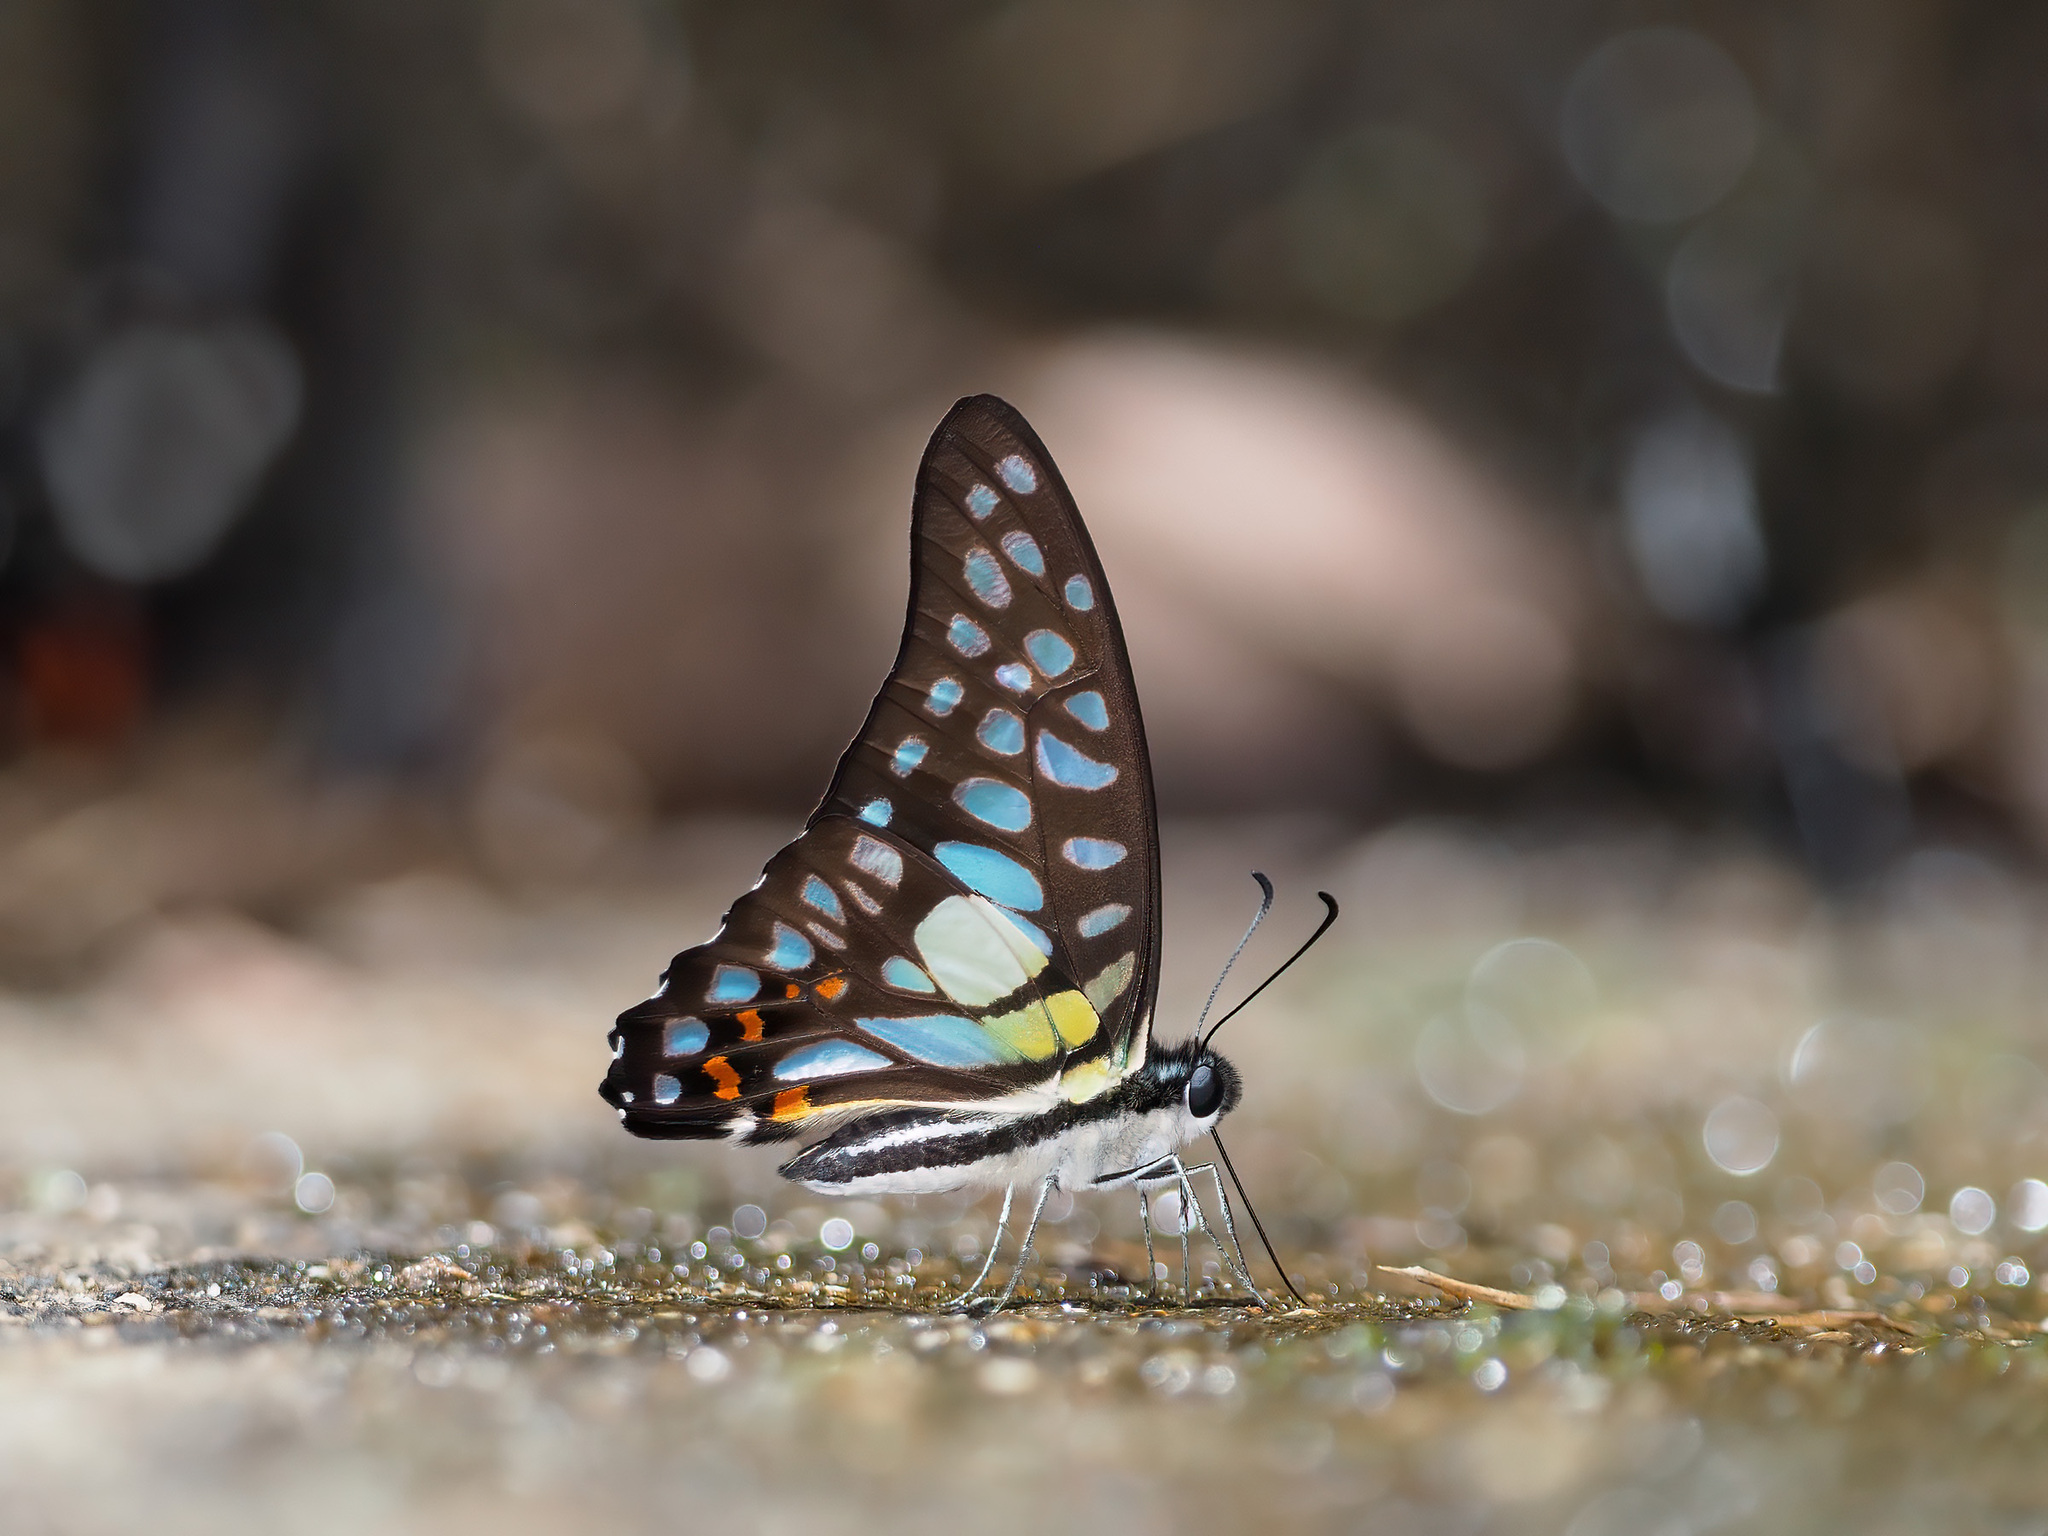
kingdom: Animalia
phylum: Arthropoda
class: Insecta
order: Lepidoptera
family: Papilionidae
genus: Graphium
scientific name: Graphium bathycles
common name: Veined jay
